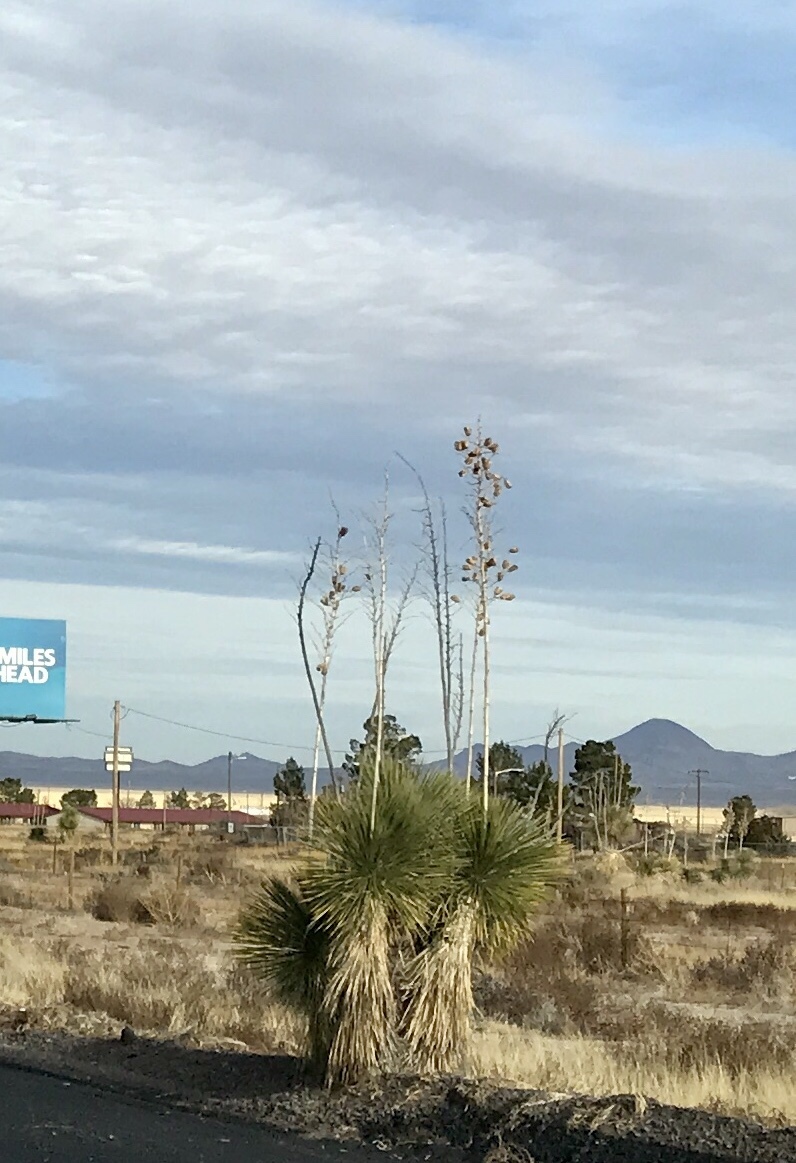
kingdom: Plantae
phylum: Tracheophyta
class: Liliopsida
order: Asparagales
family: Asparagaceae
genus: Yucca
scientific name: Yucca elata
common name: Palmella
